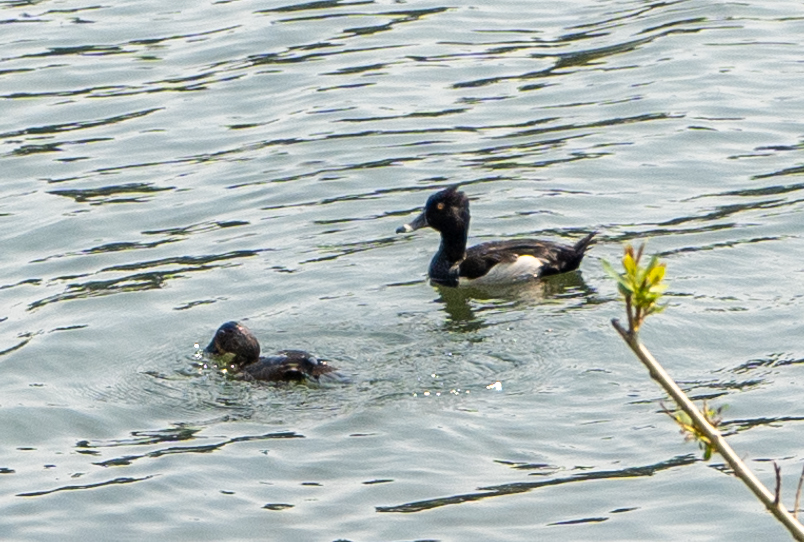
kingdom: Animalia
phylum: Chordata
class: Aves
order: Anseriformes
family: Anatidae
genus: Aythya
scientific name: Aythya collaris
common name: Ring-necked duck
